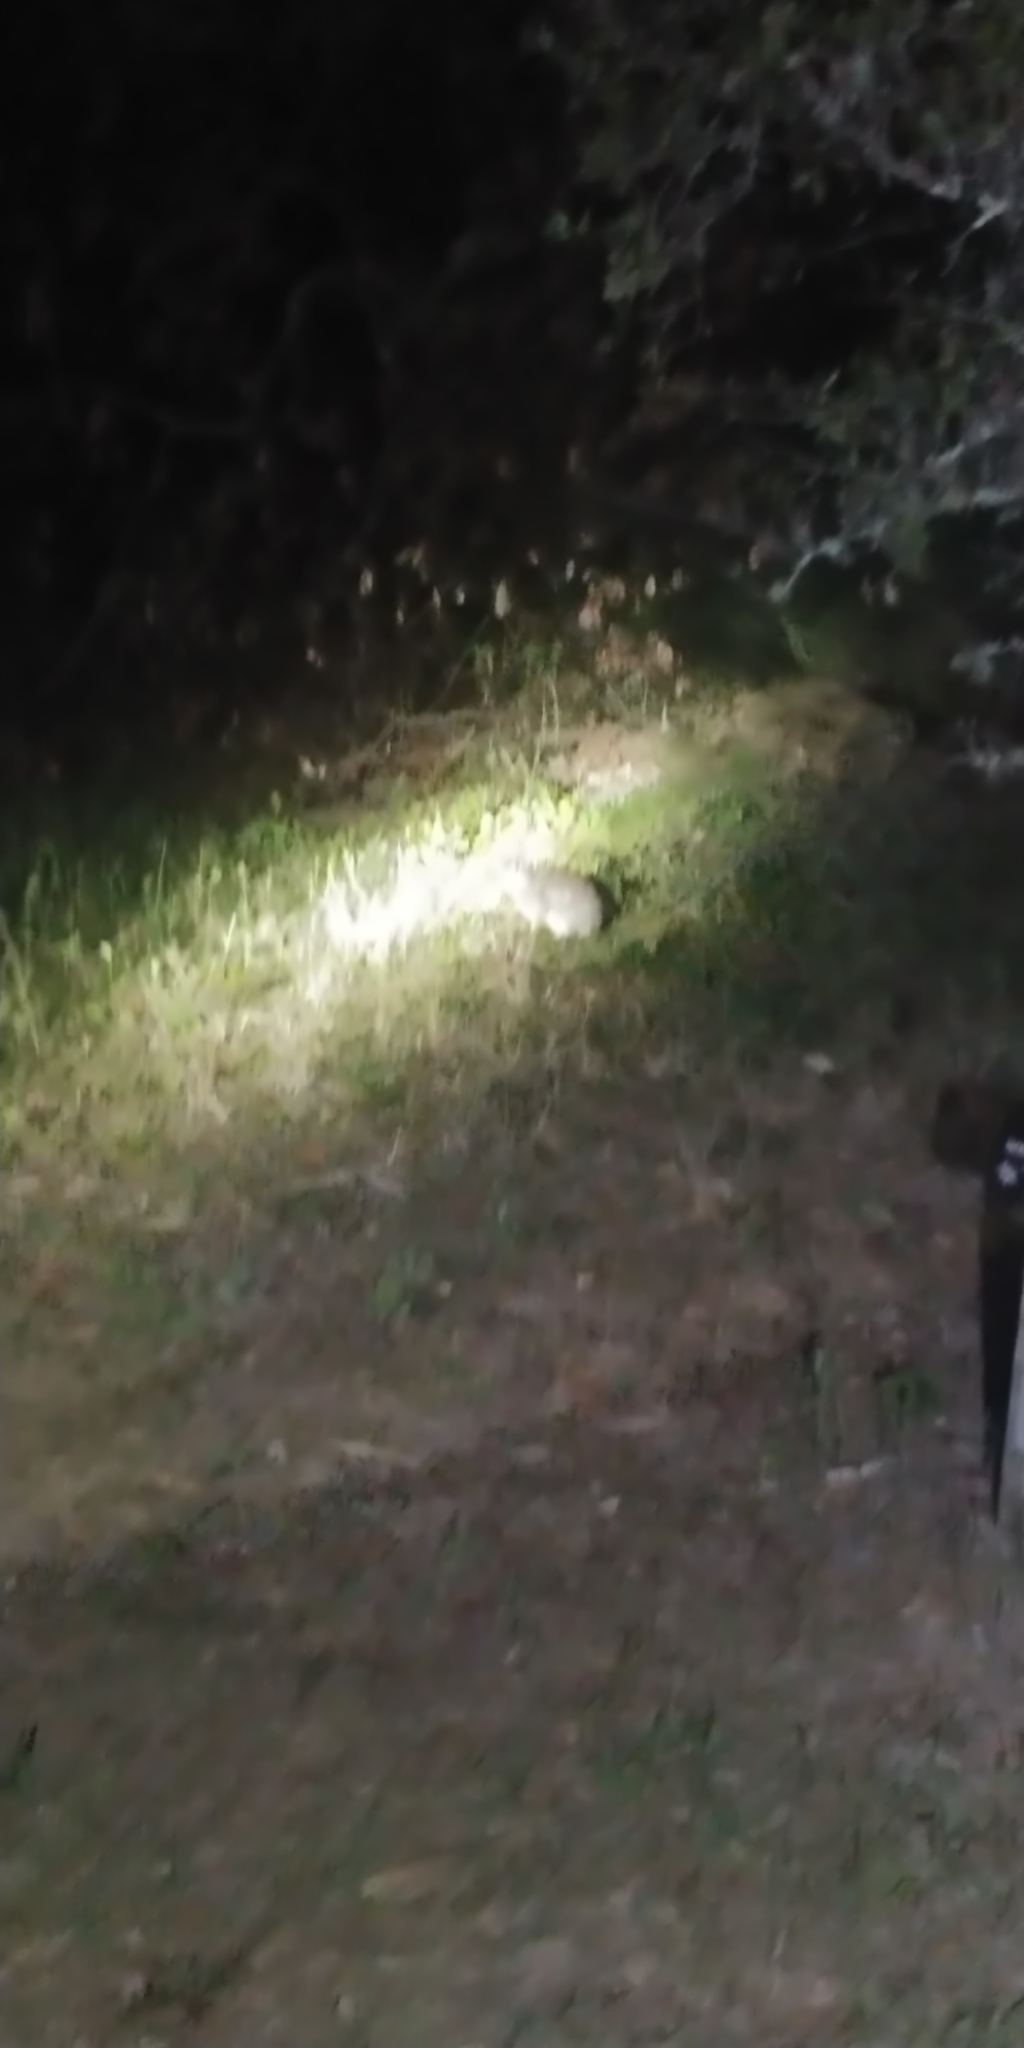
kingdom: Animalia
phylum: Chordata
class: Mammalia
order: Lagomorpha
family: Leporidae
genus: Sylvilagus
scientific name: Sylvilagus floridanus
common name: Eastern cottontail
